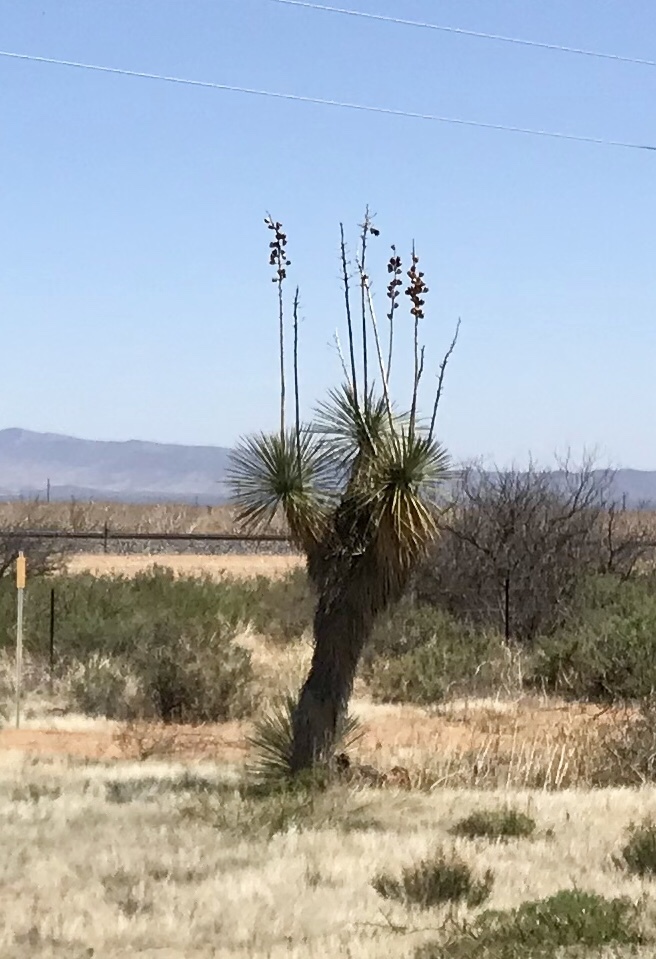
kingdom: Plantae
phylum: Tracheophyta
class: Liliopsida
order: Asparagales
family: Asparagaceae
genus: Yucca
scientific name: Yucca elata
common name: Palmella
